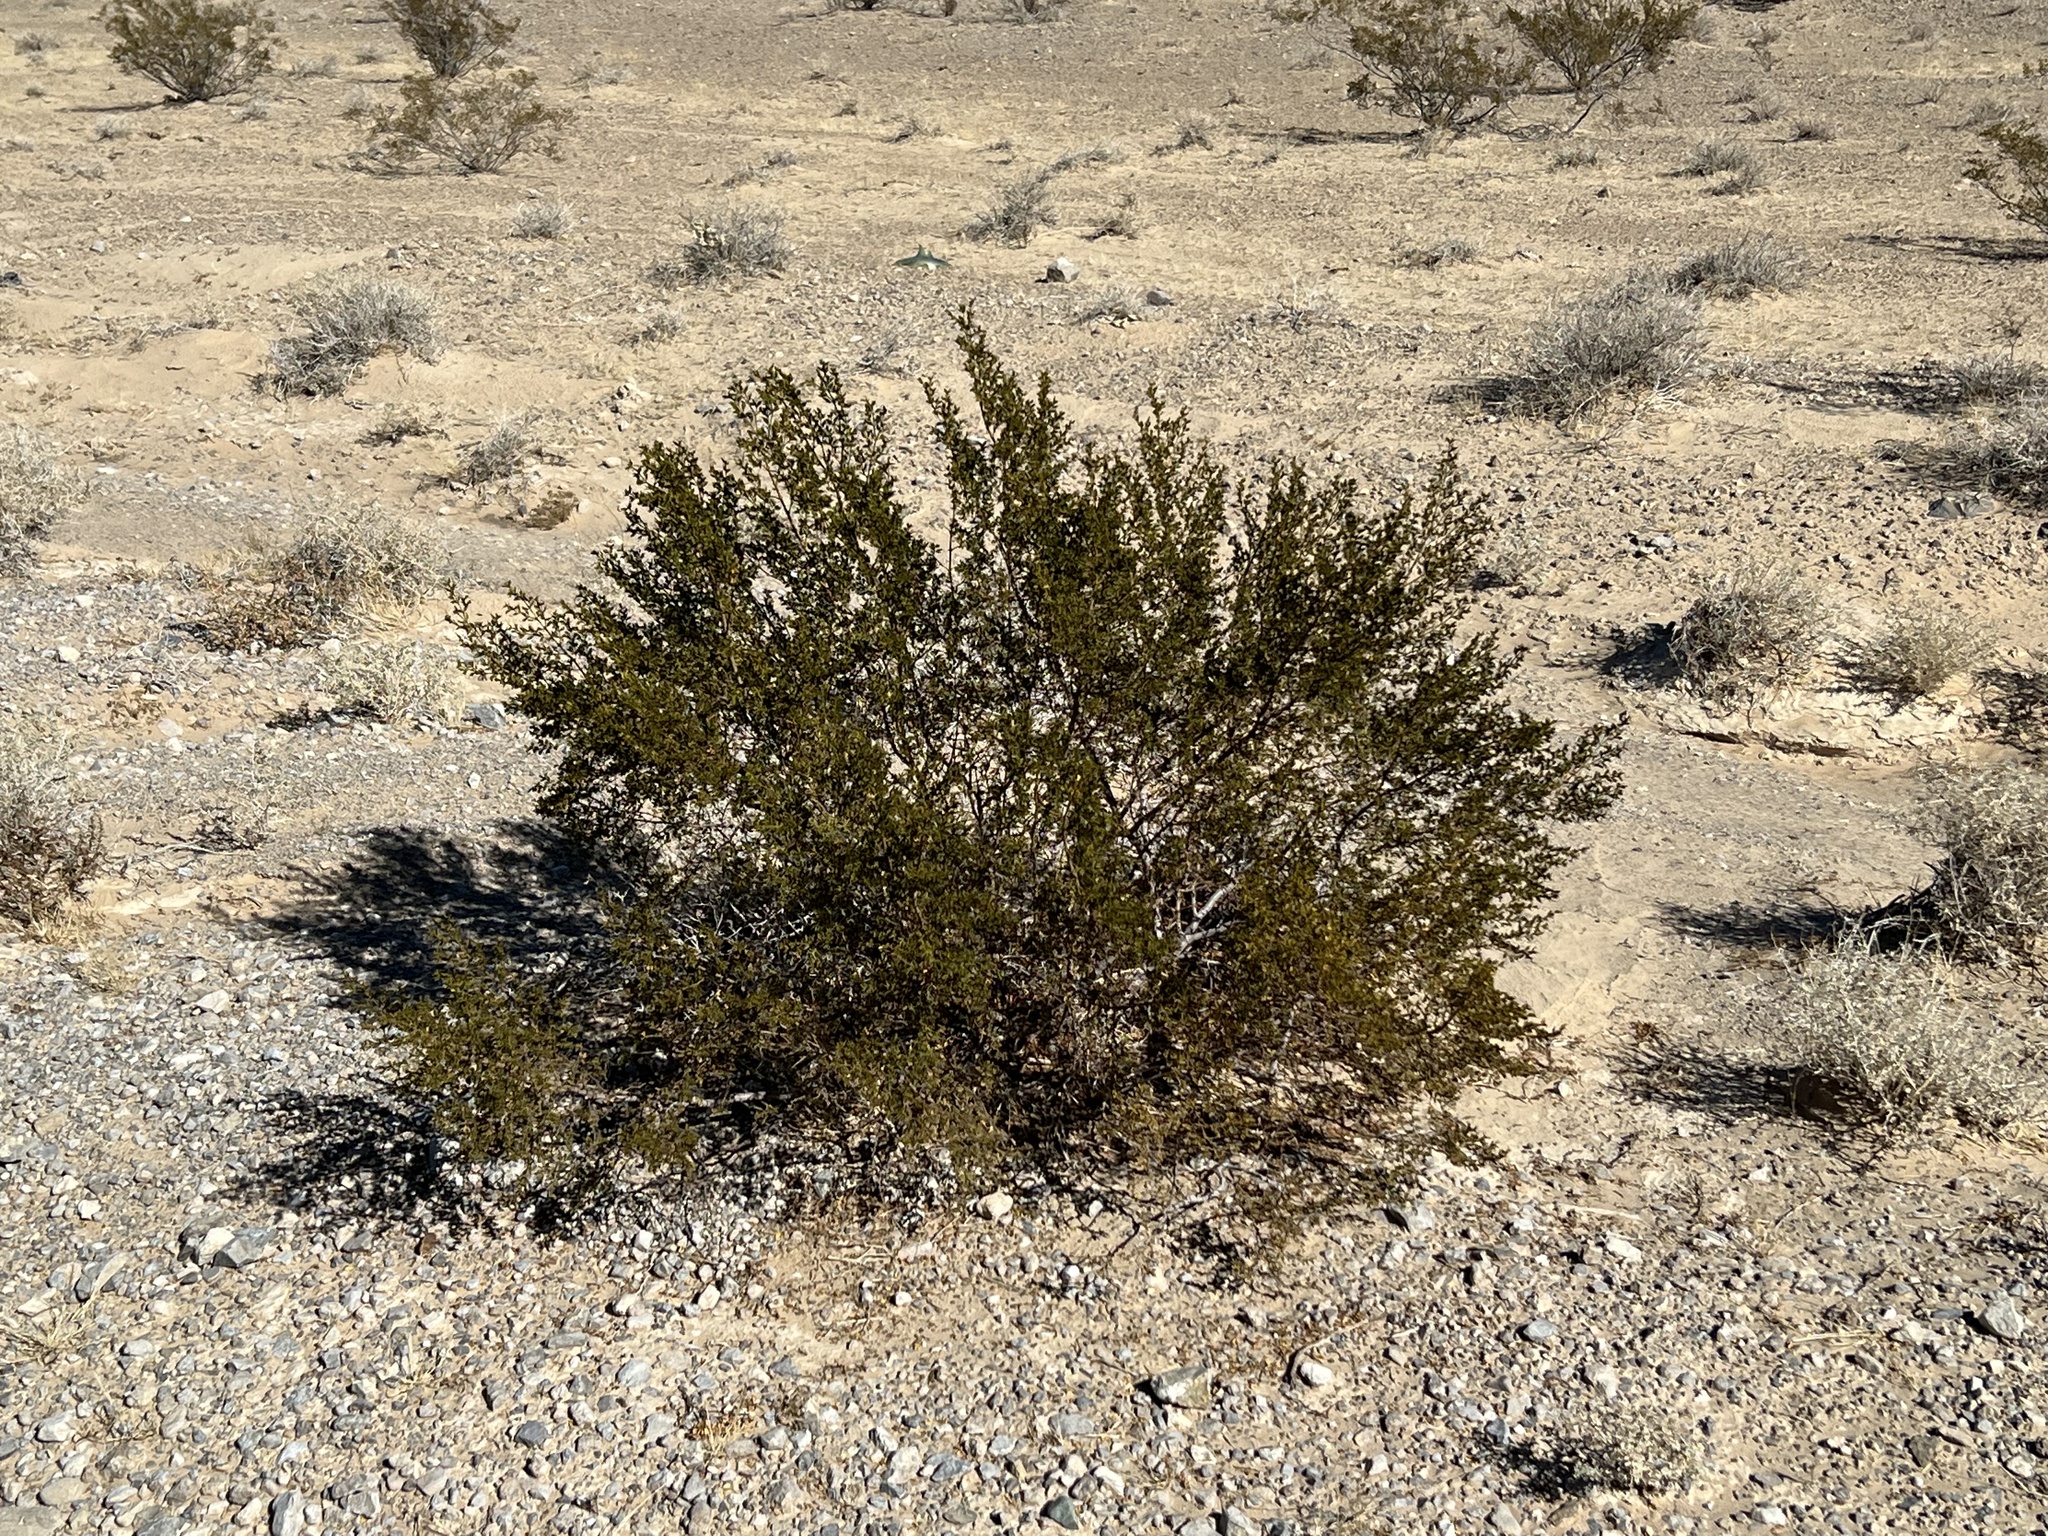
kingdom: Plantae
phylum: Tracheophyta
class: Magnoliopsida
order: Zygophyllales
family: Zygophyllaceae
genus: Larrea
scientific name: Larrea tridentata
